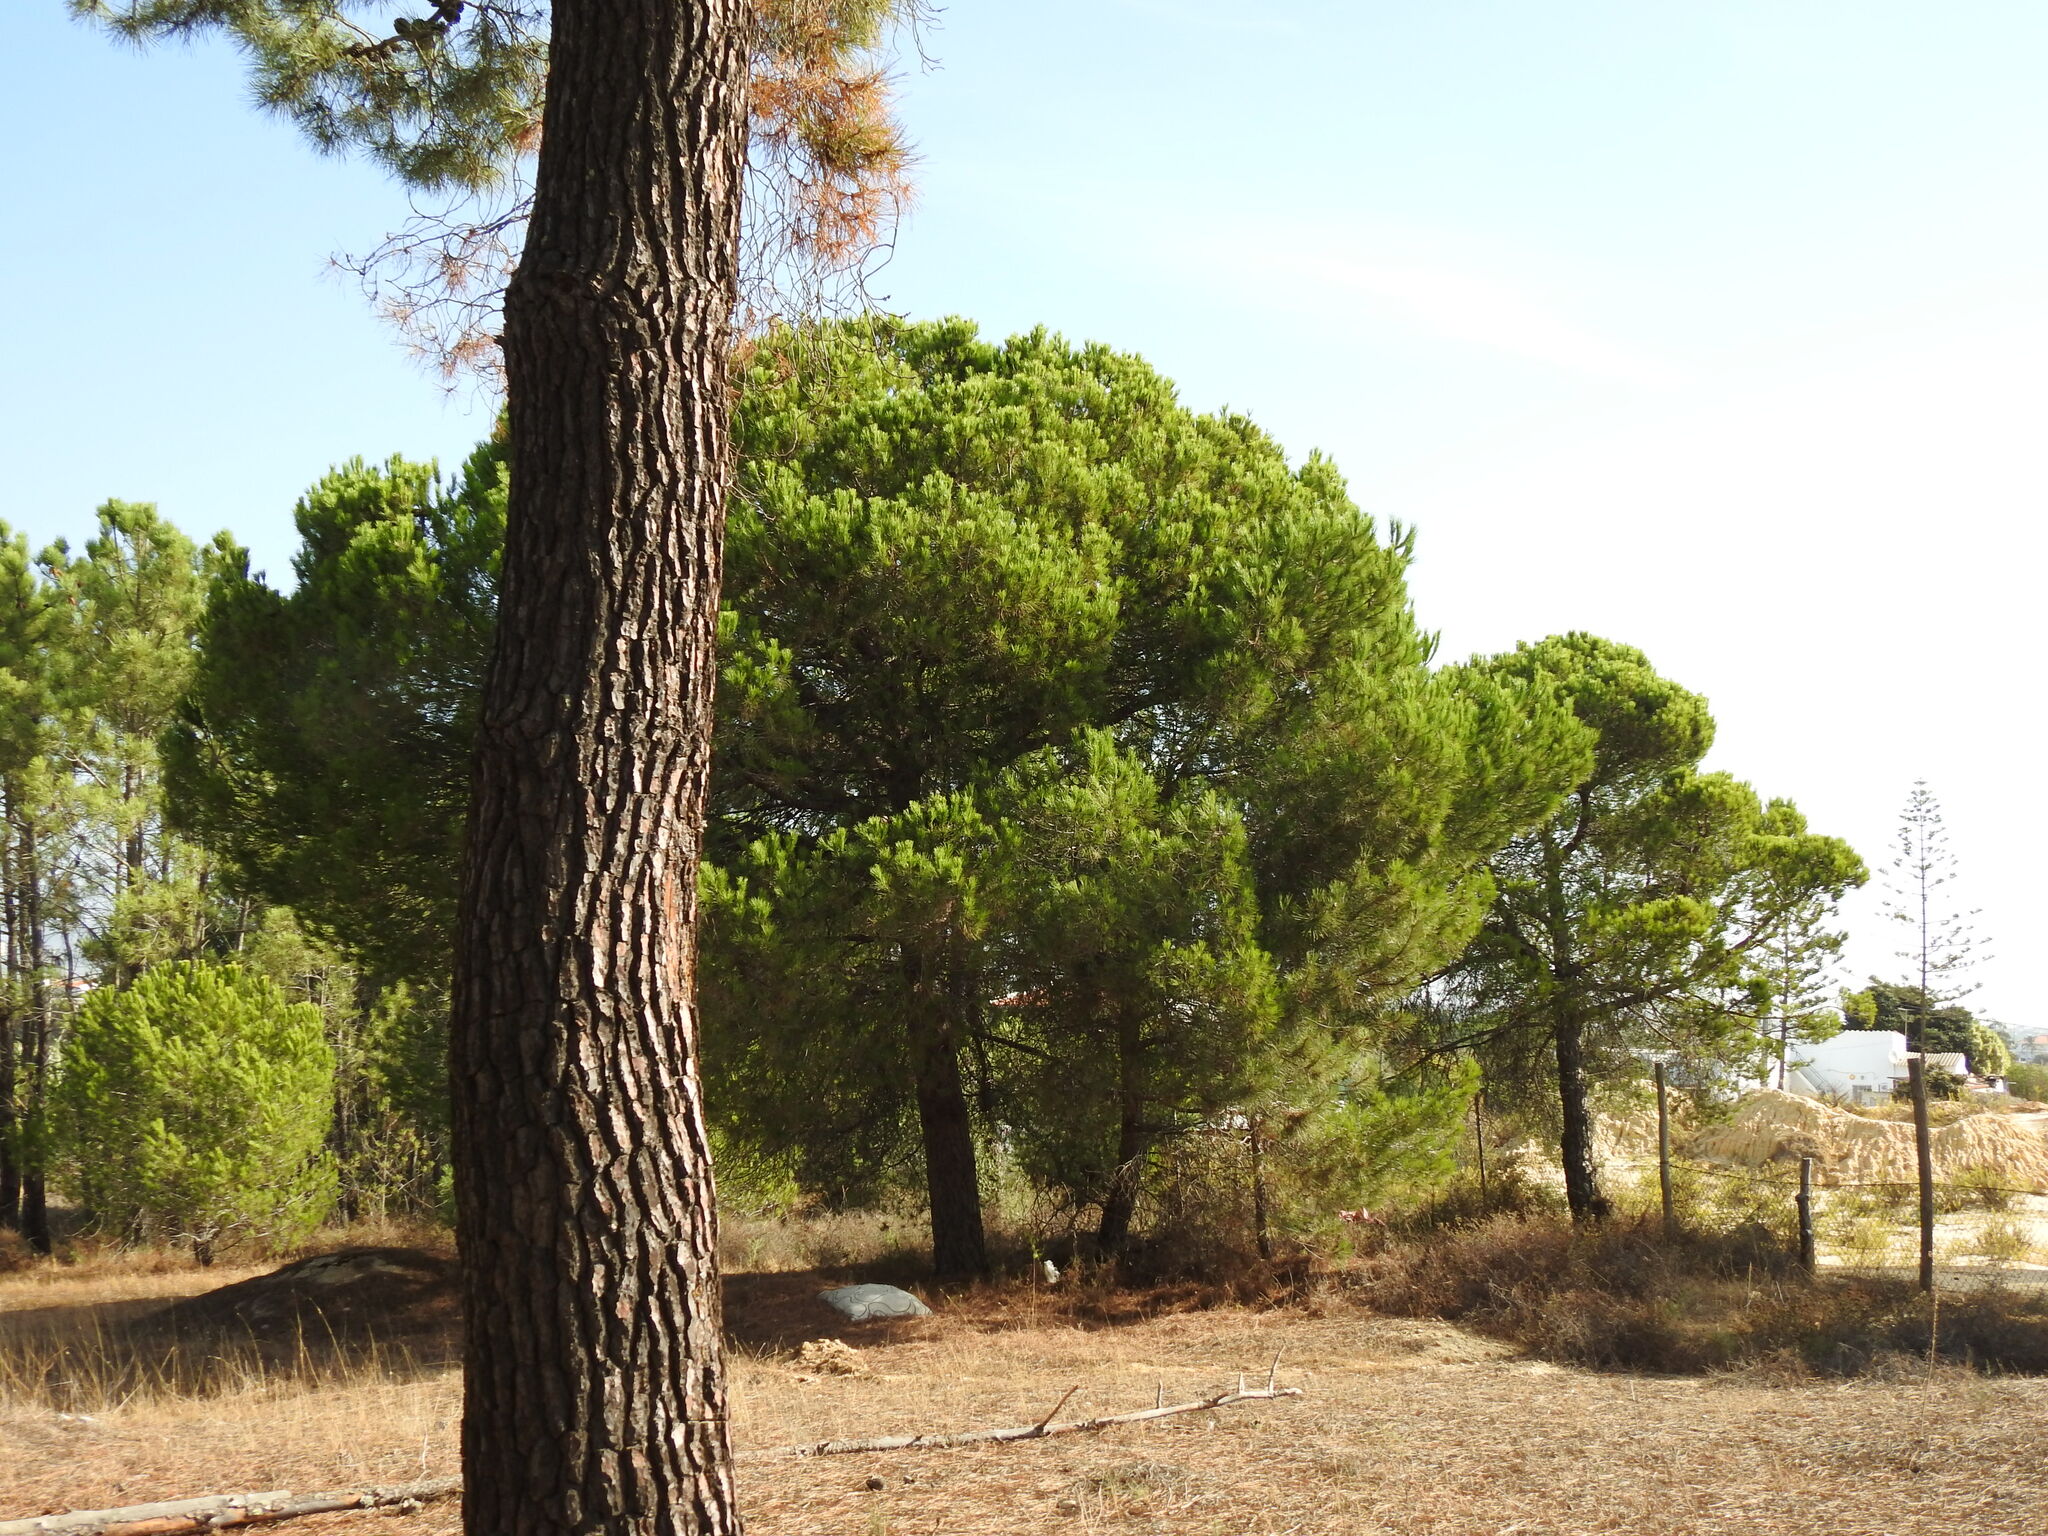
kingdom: Plantae
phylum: Tracheophyta
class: Pinopsida
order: Pinales
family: Pinaceae
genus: Pinus
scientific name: Pinus pinea
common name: Italian stone pine
